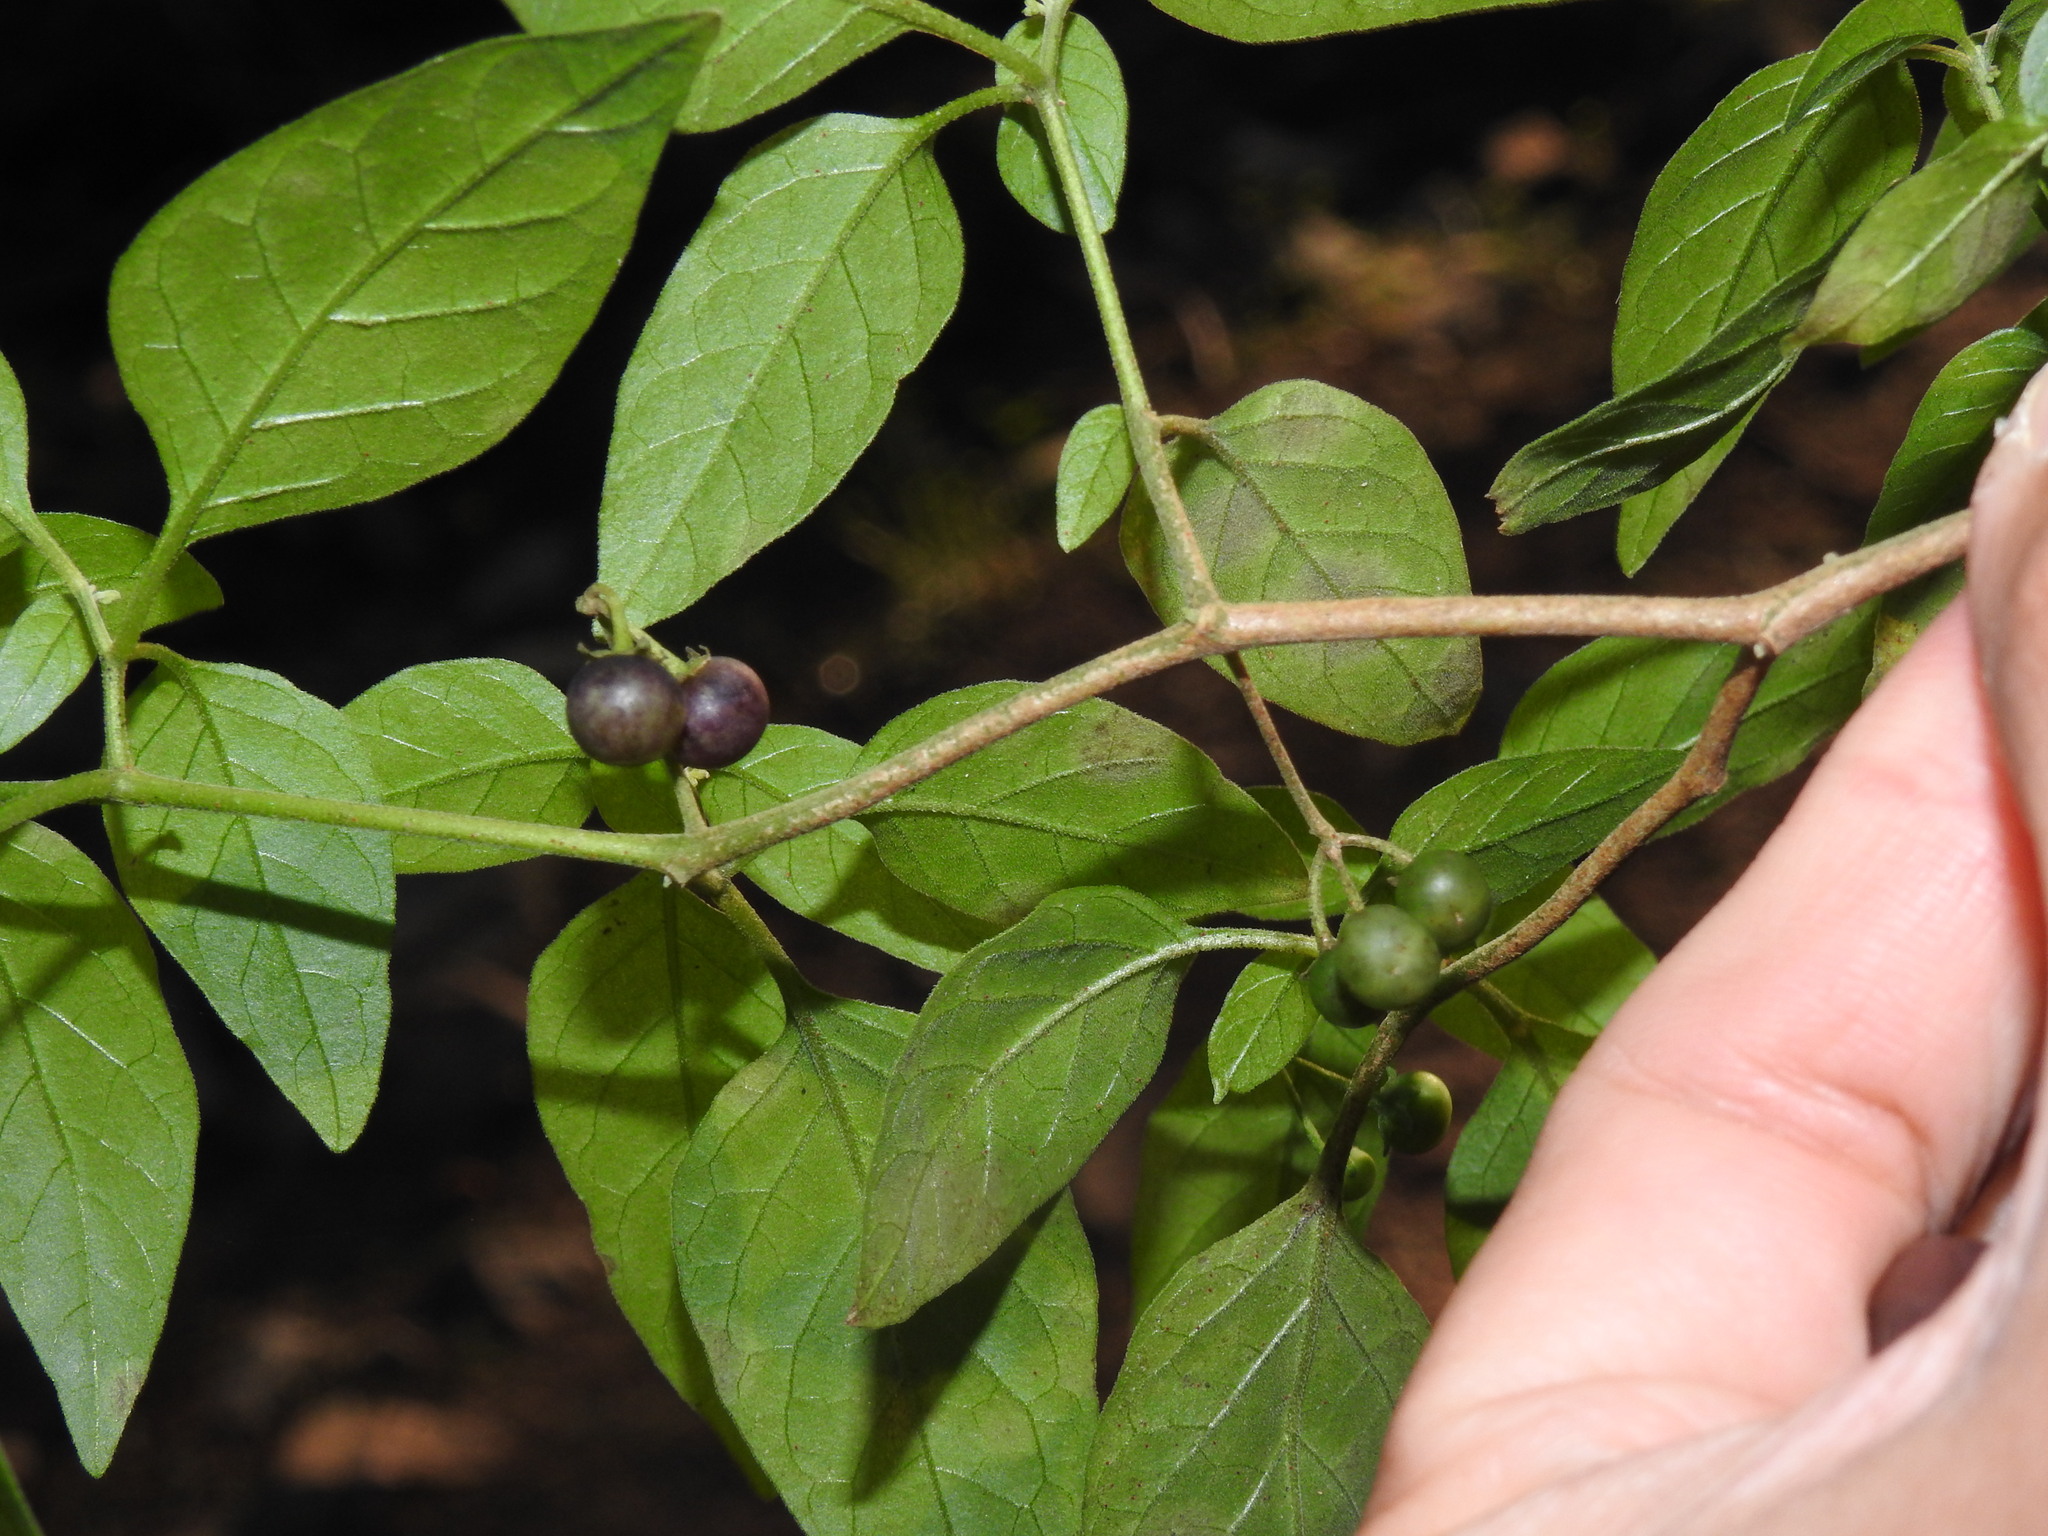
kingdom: Plantae
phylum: Tracheophyta
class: Magnoliopsida
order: Solanales
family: Solanaceae
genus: Solanum
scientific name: Solanum chenopodioides
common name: Tall nightshade
